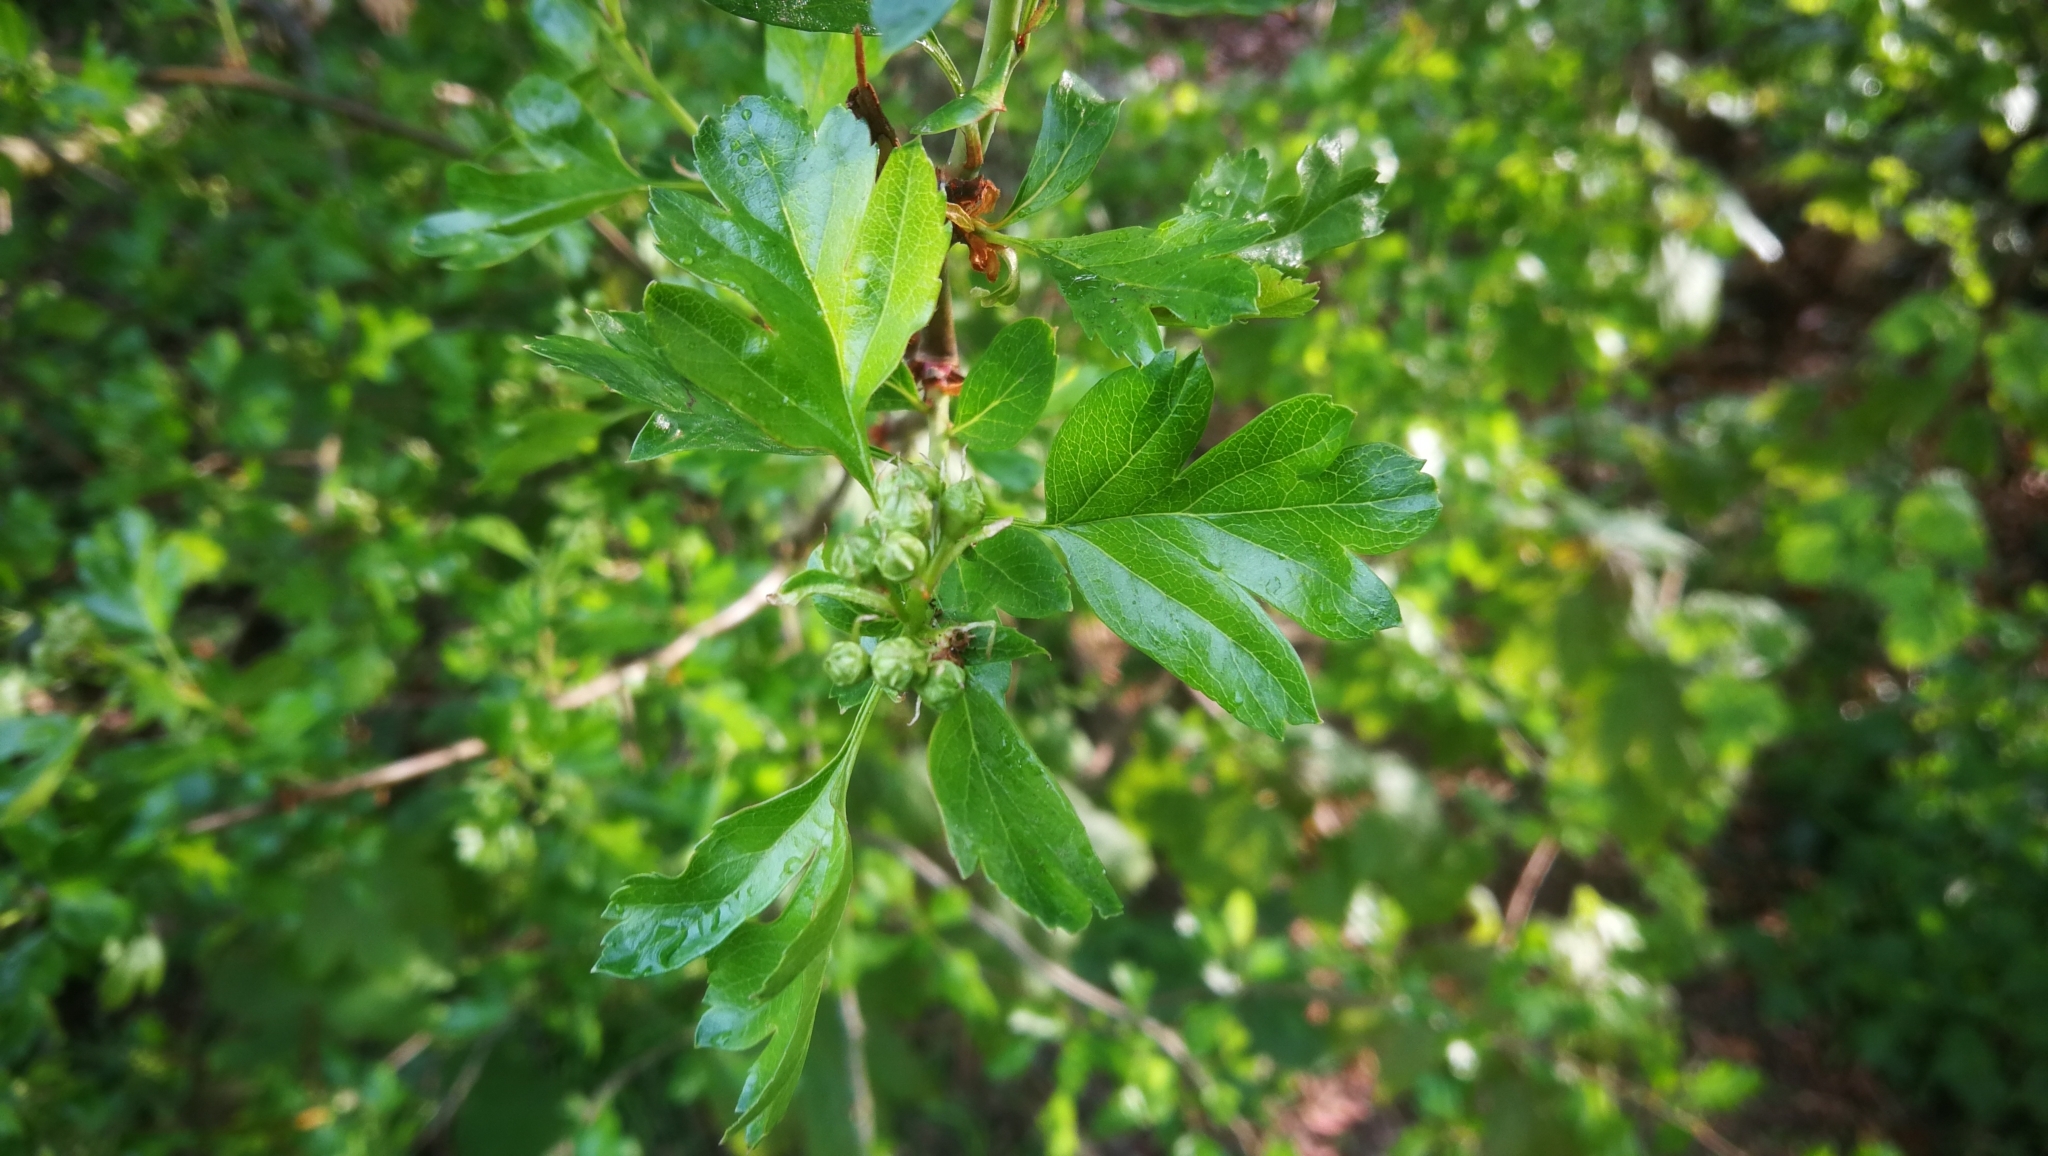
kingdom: Plantae
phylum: Tracheophyta
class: Magnoliopsida
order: Rosales
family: Rosaceae
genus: Crataegus
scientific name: Crataegus monogyna
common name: Hawthorn
